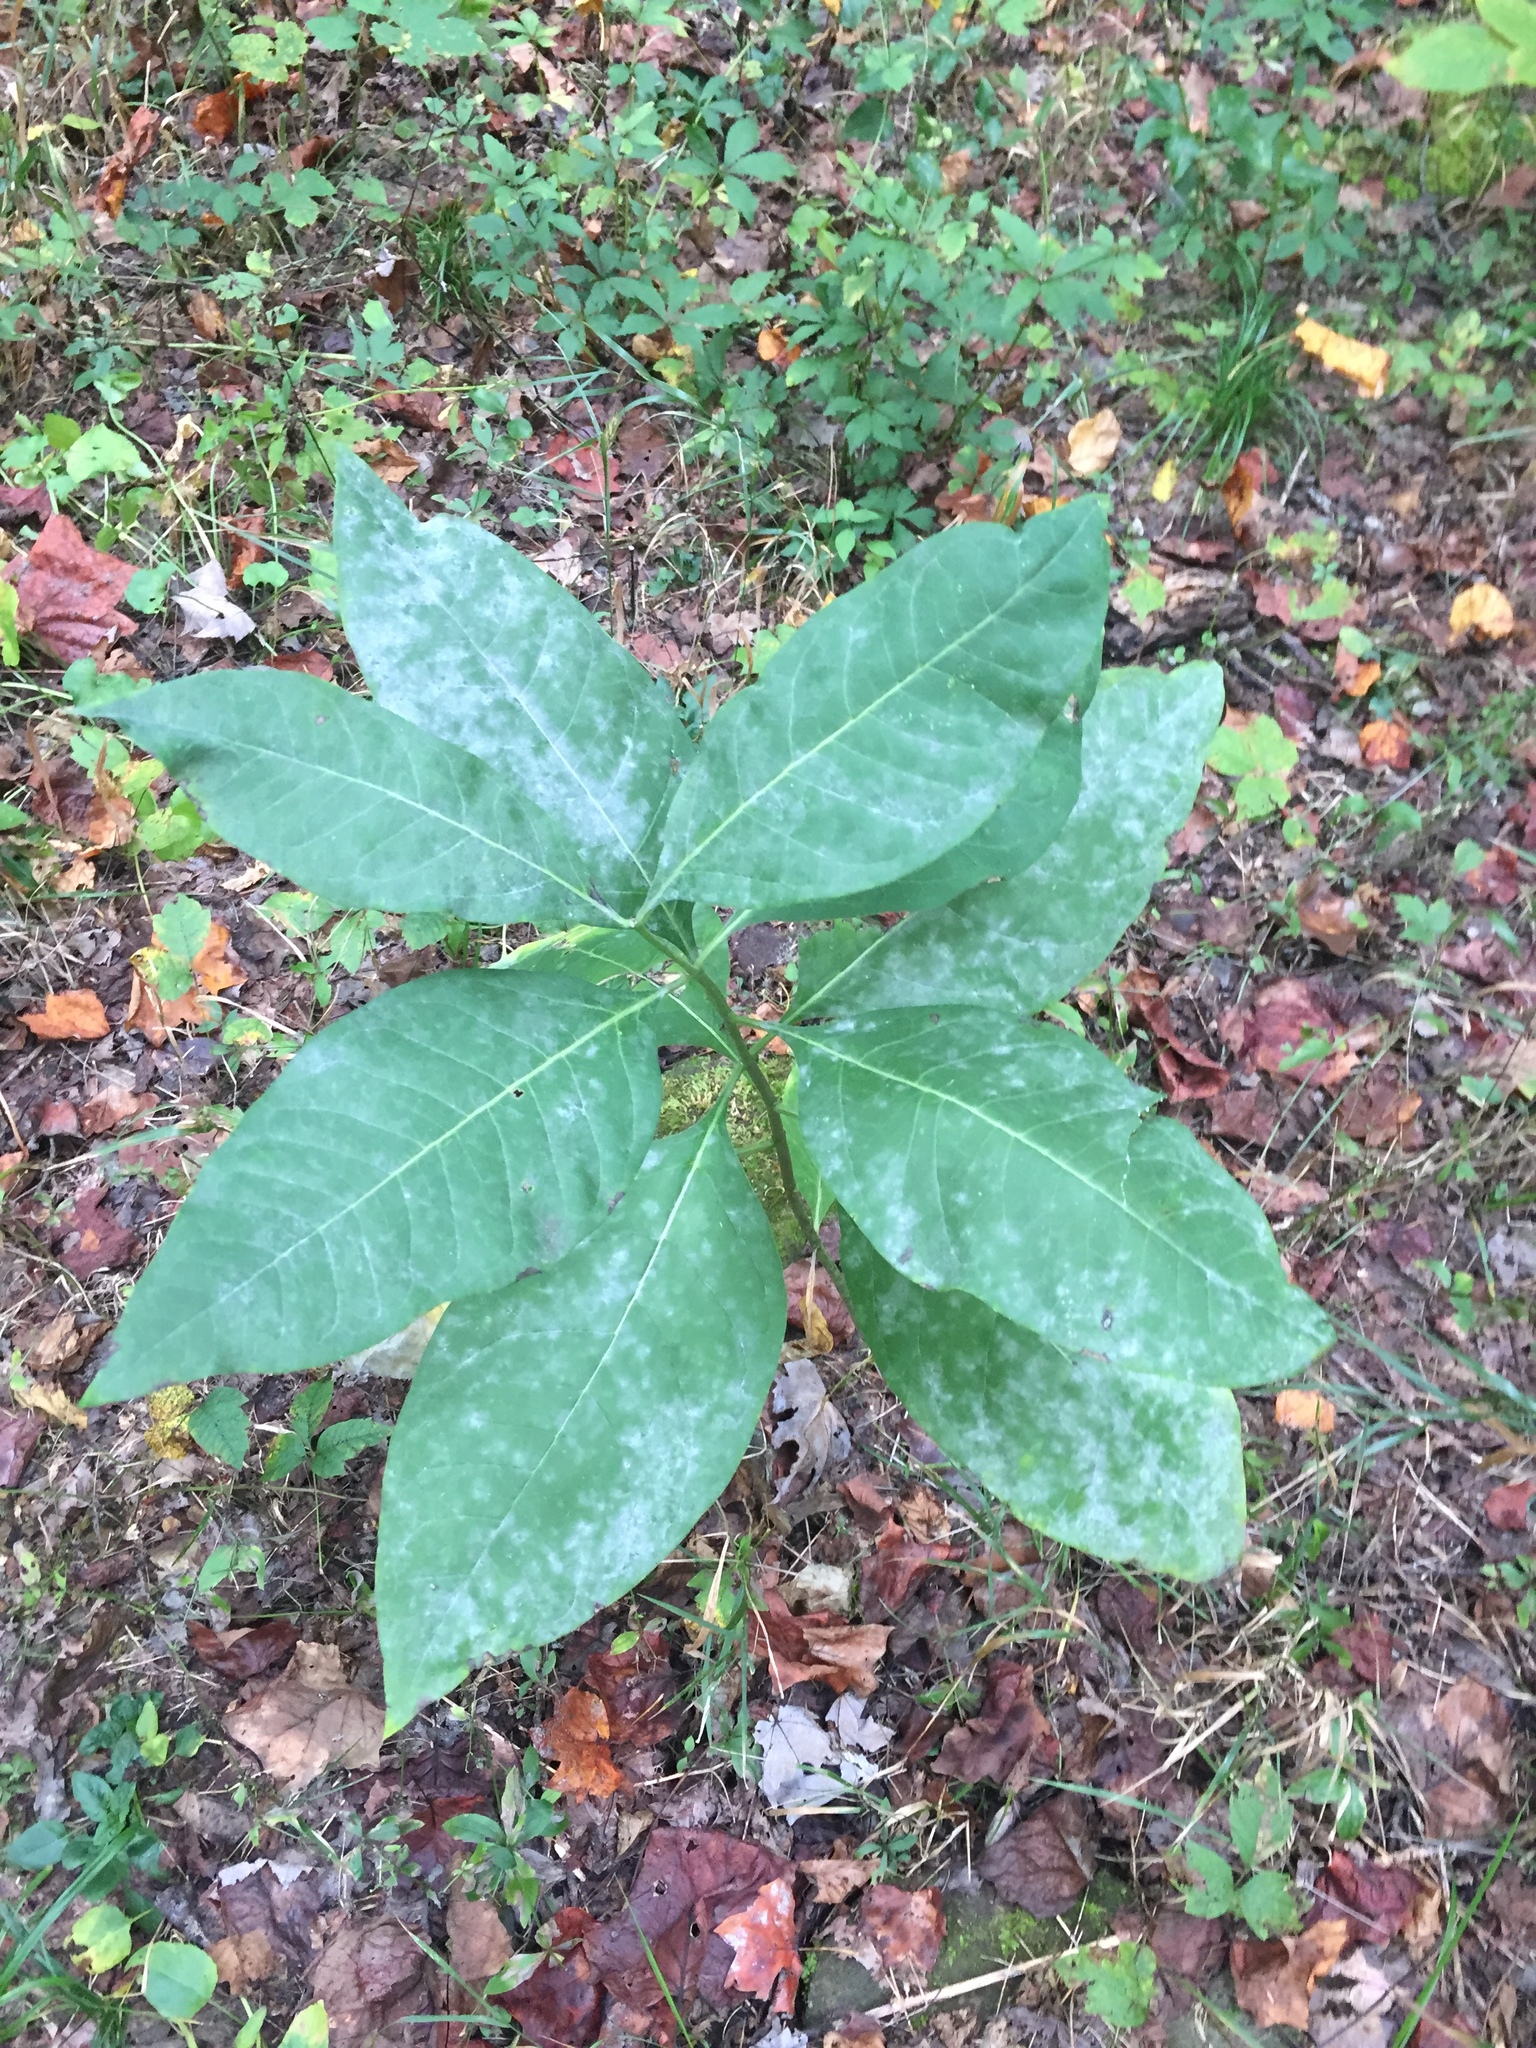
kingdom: Plantae
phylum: Tracheophyta
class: Magnoliopsida
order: Gentianales
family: Apocynaceae
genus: Asclepias
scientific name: Asclepias exaltata
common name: Poke milkweed
